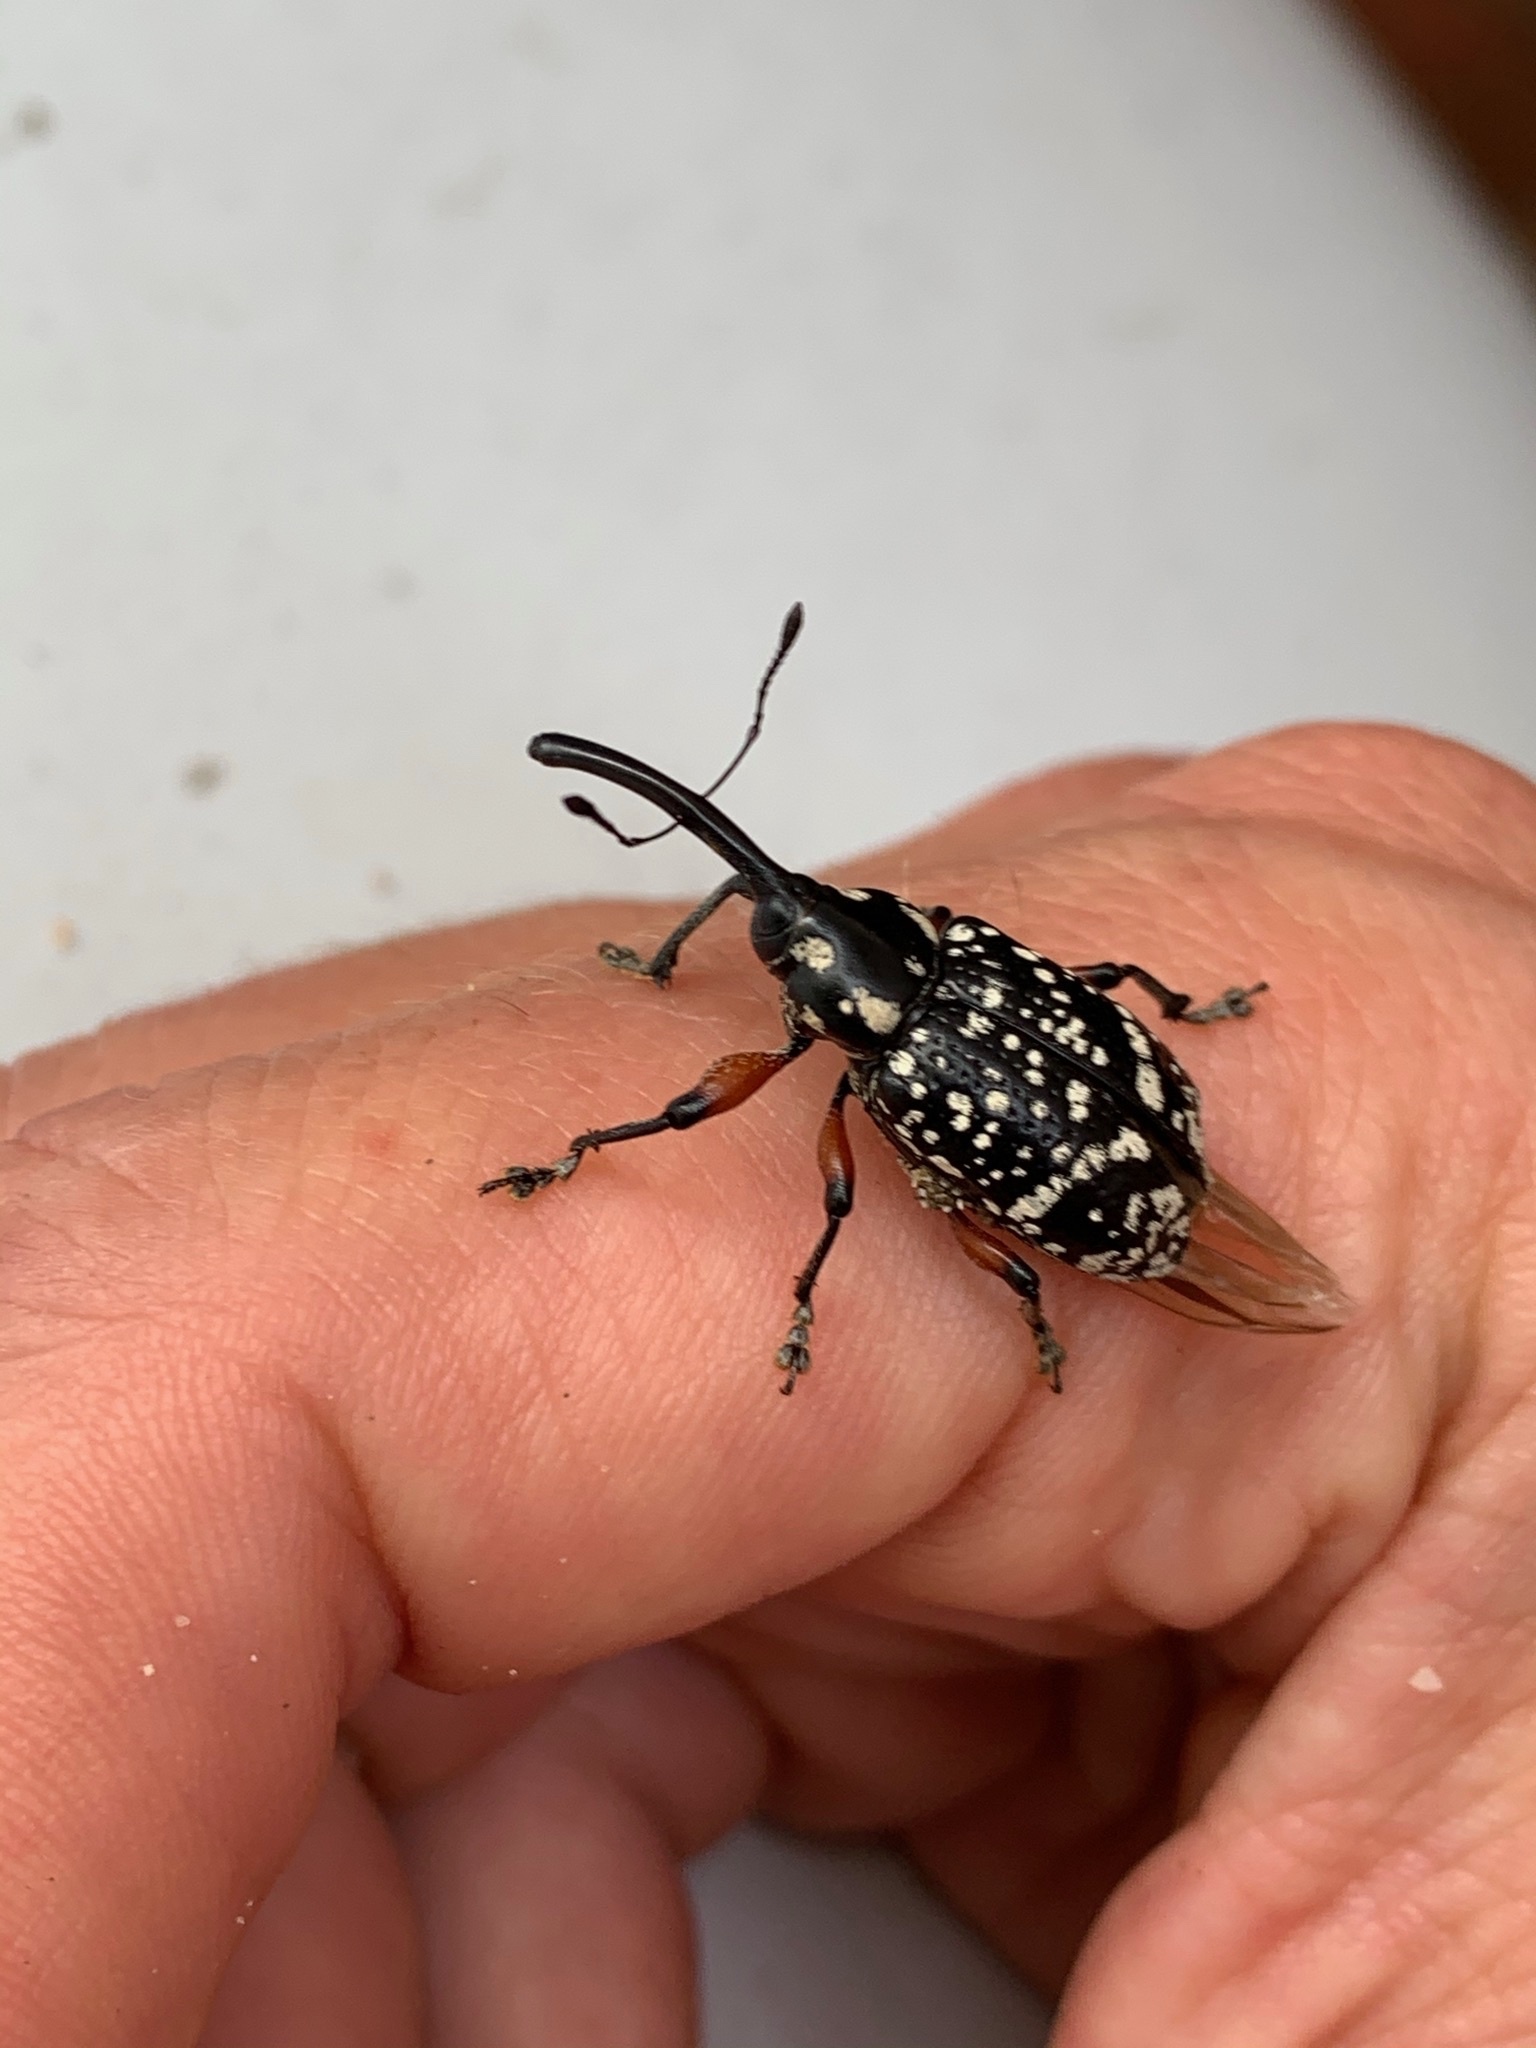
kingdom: Animalia
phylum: Arthropoda
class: Insecta
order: Coleoptera
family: Curculionidae
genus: Heilipodus
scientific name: Heilipodus erythropus
